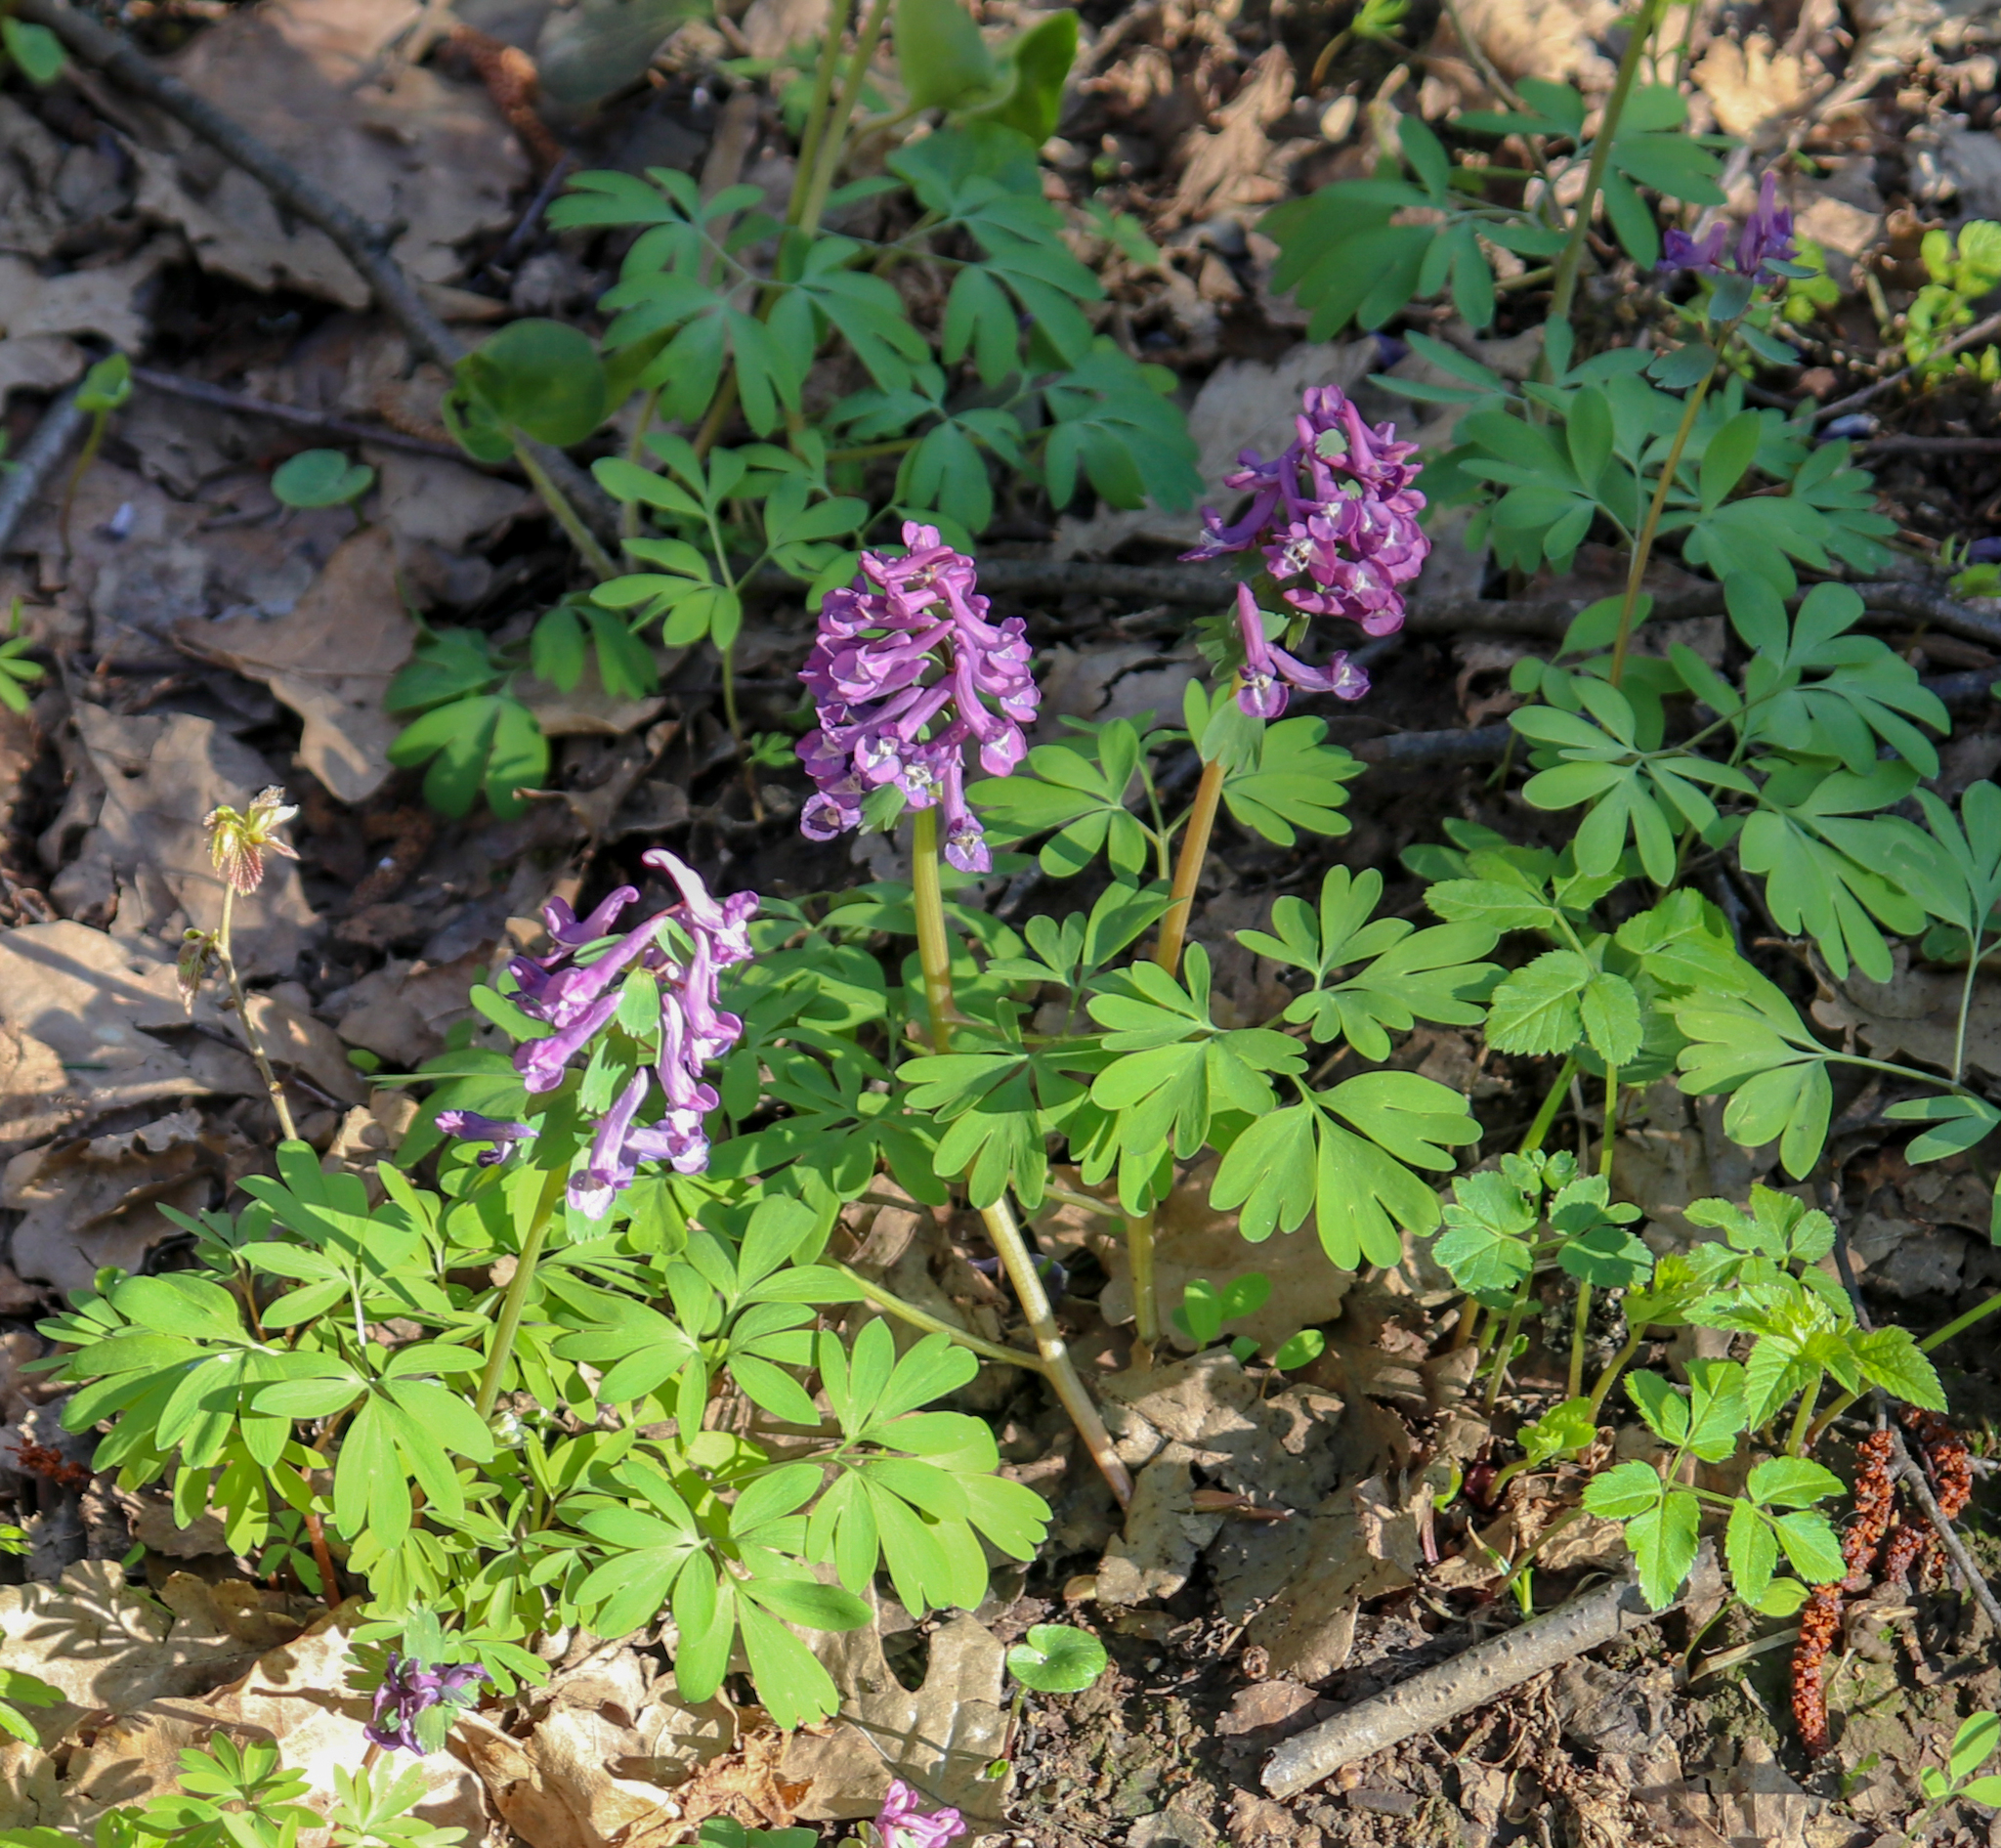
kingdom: Plantae
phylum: Tracheophyta
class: Magnoliopsida
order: Ranunculales
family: Papaveraceae
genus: Corydalis
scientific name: Corydalis solida
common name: Bird-in-a-bush
